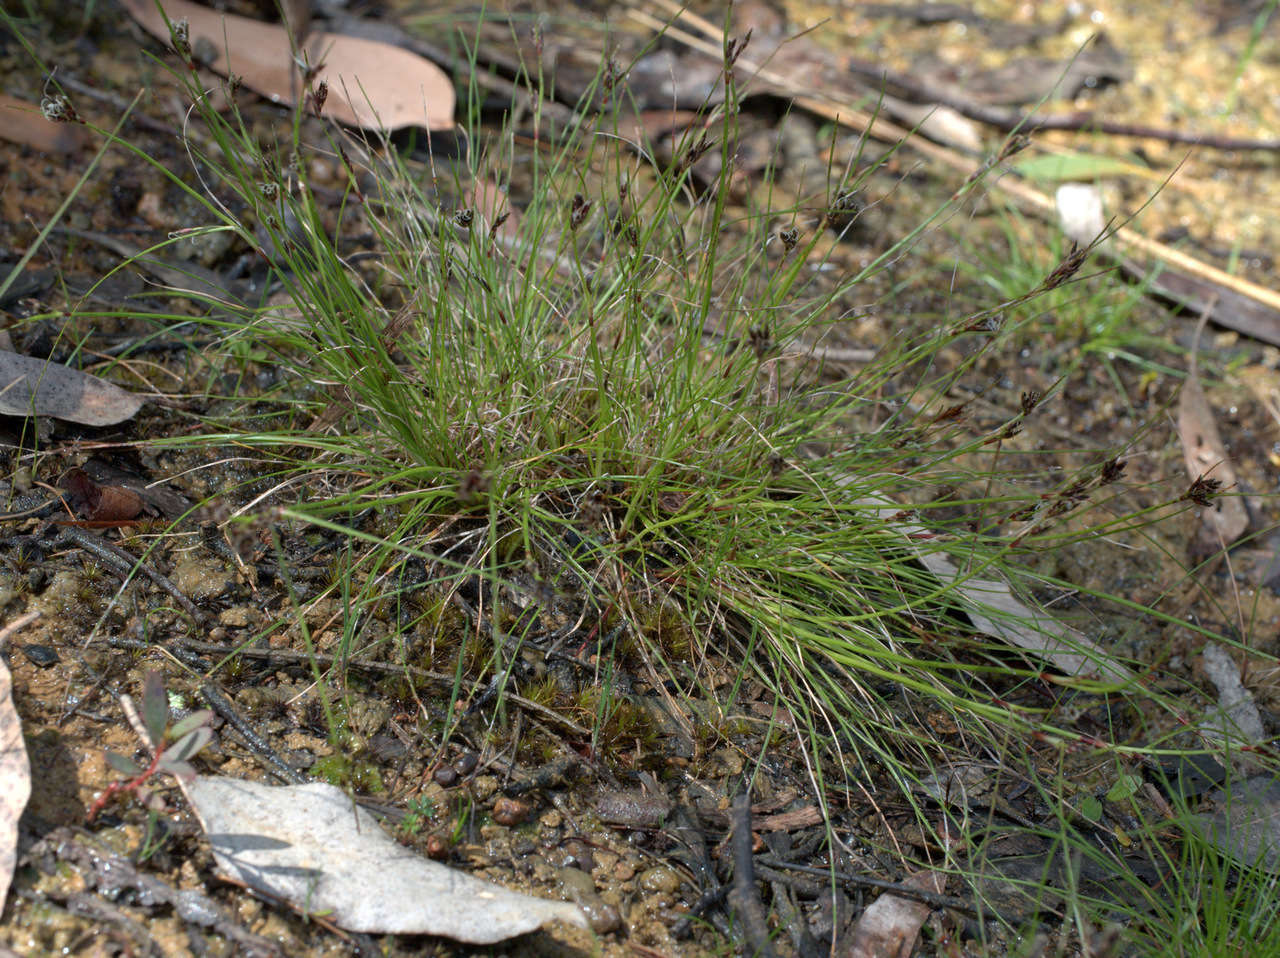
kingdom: Plantae
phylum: Tracheophyta
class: Liliopsida
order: Poales
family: Cyperaceae
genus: Schoenus
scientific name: Schoenus apogon
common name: Smooth bogrush
